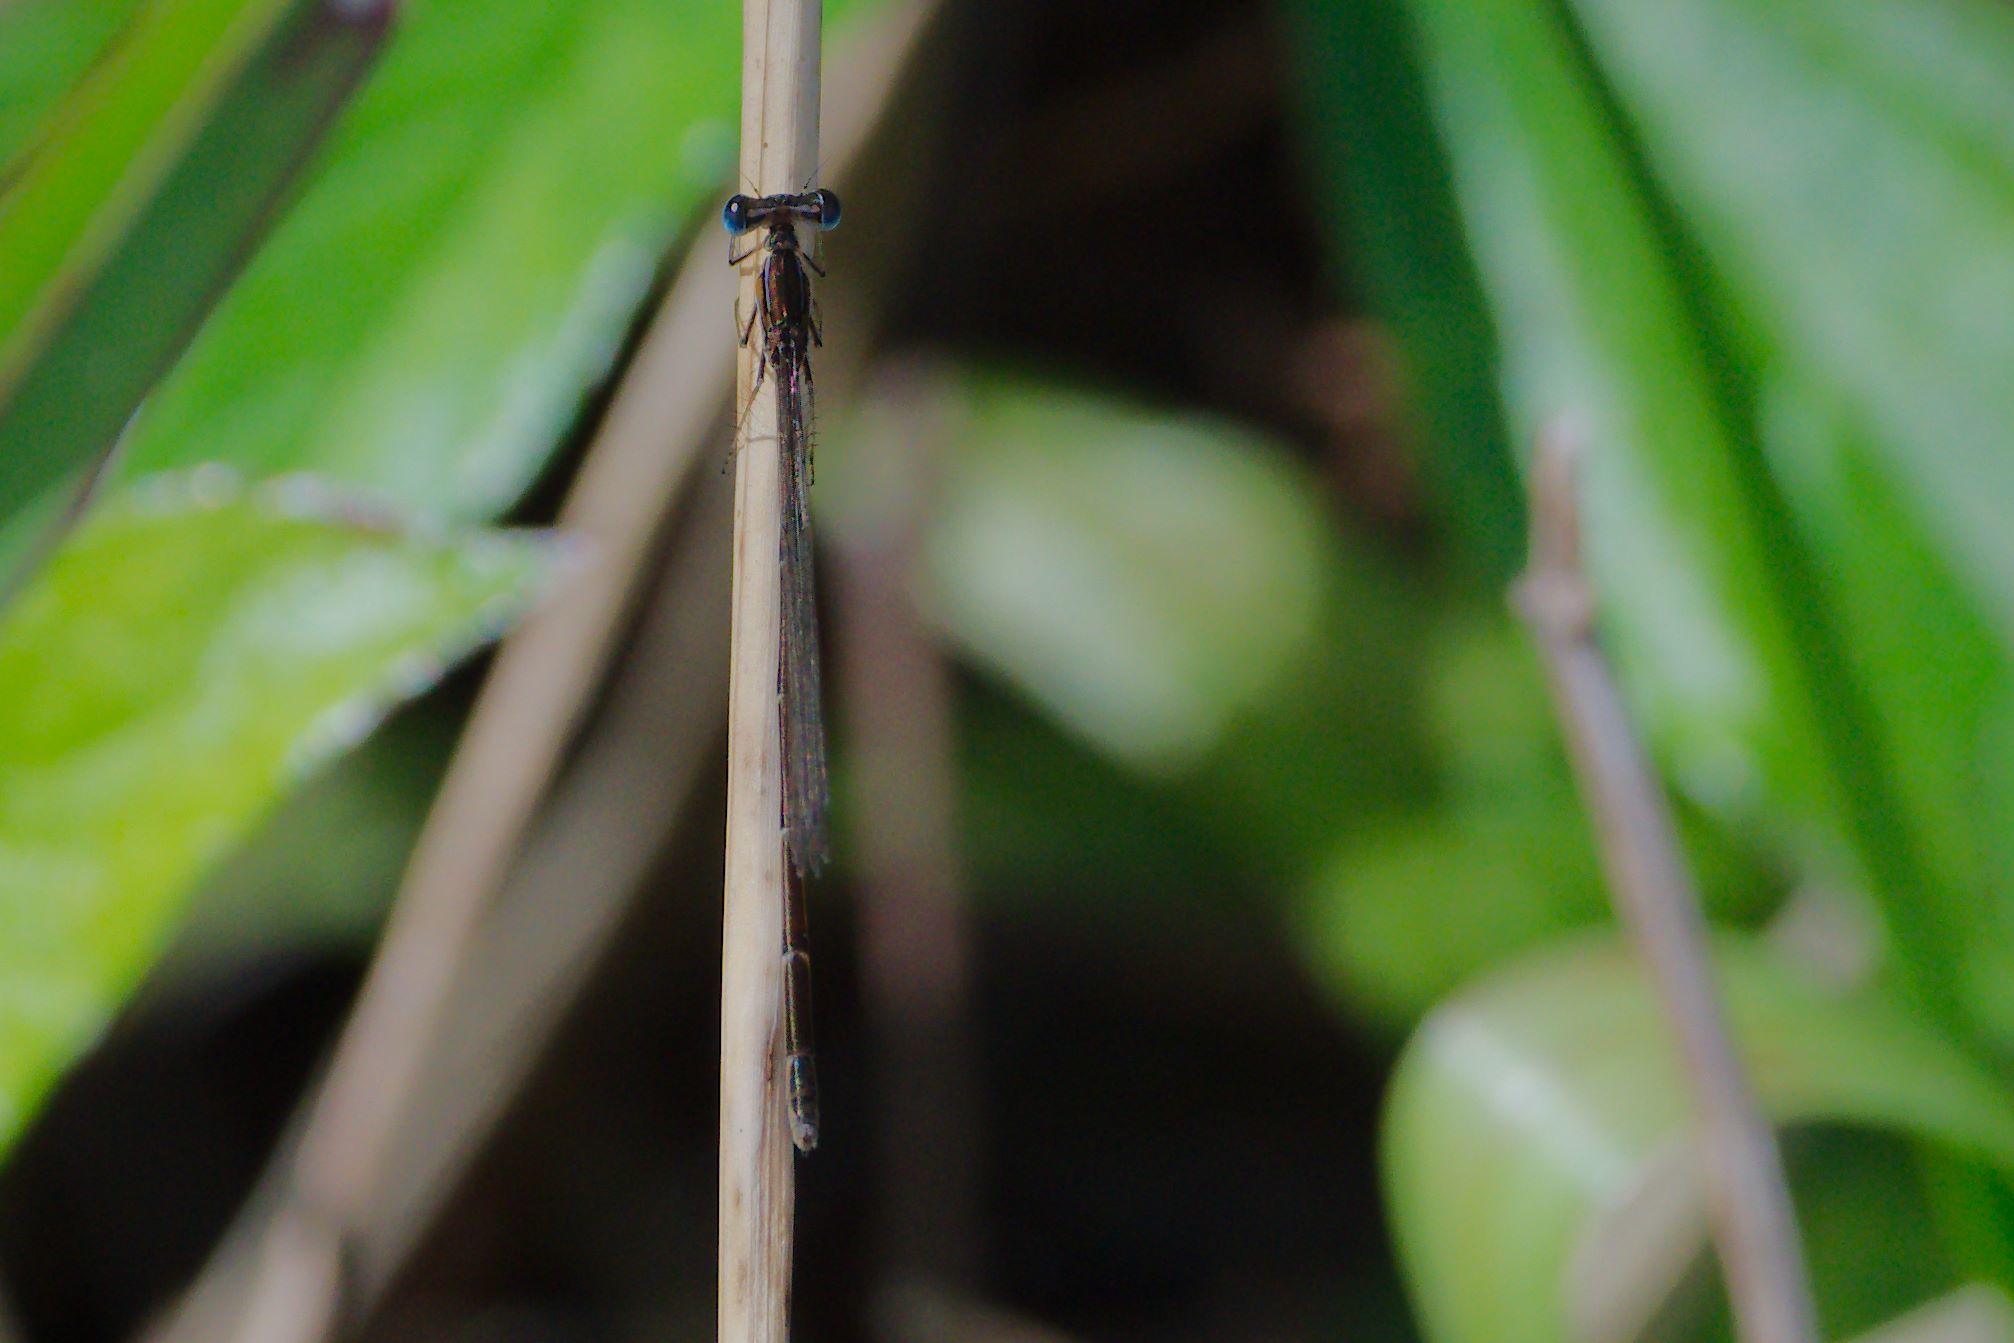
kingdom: Animalia
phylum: Arthropoda
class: Insecta
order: Odonata
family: Coenagrionidae
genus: Nehalennia
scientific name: Nehalennia pallidula
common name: Everglades sprite
